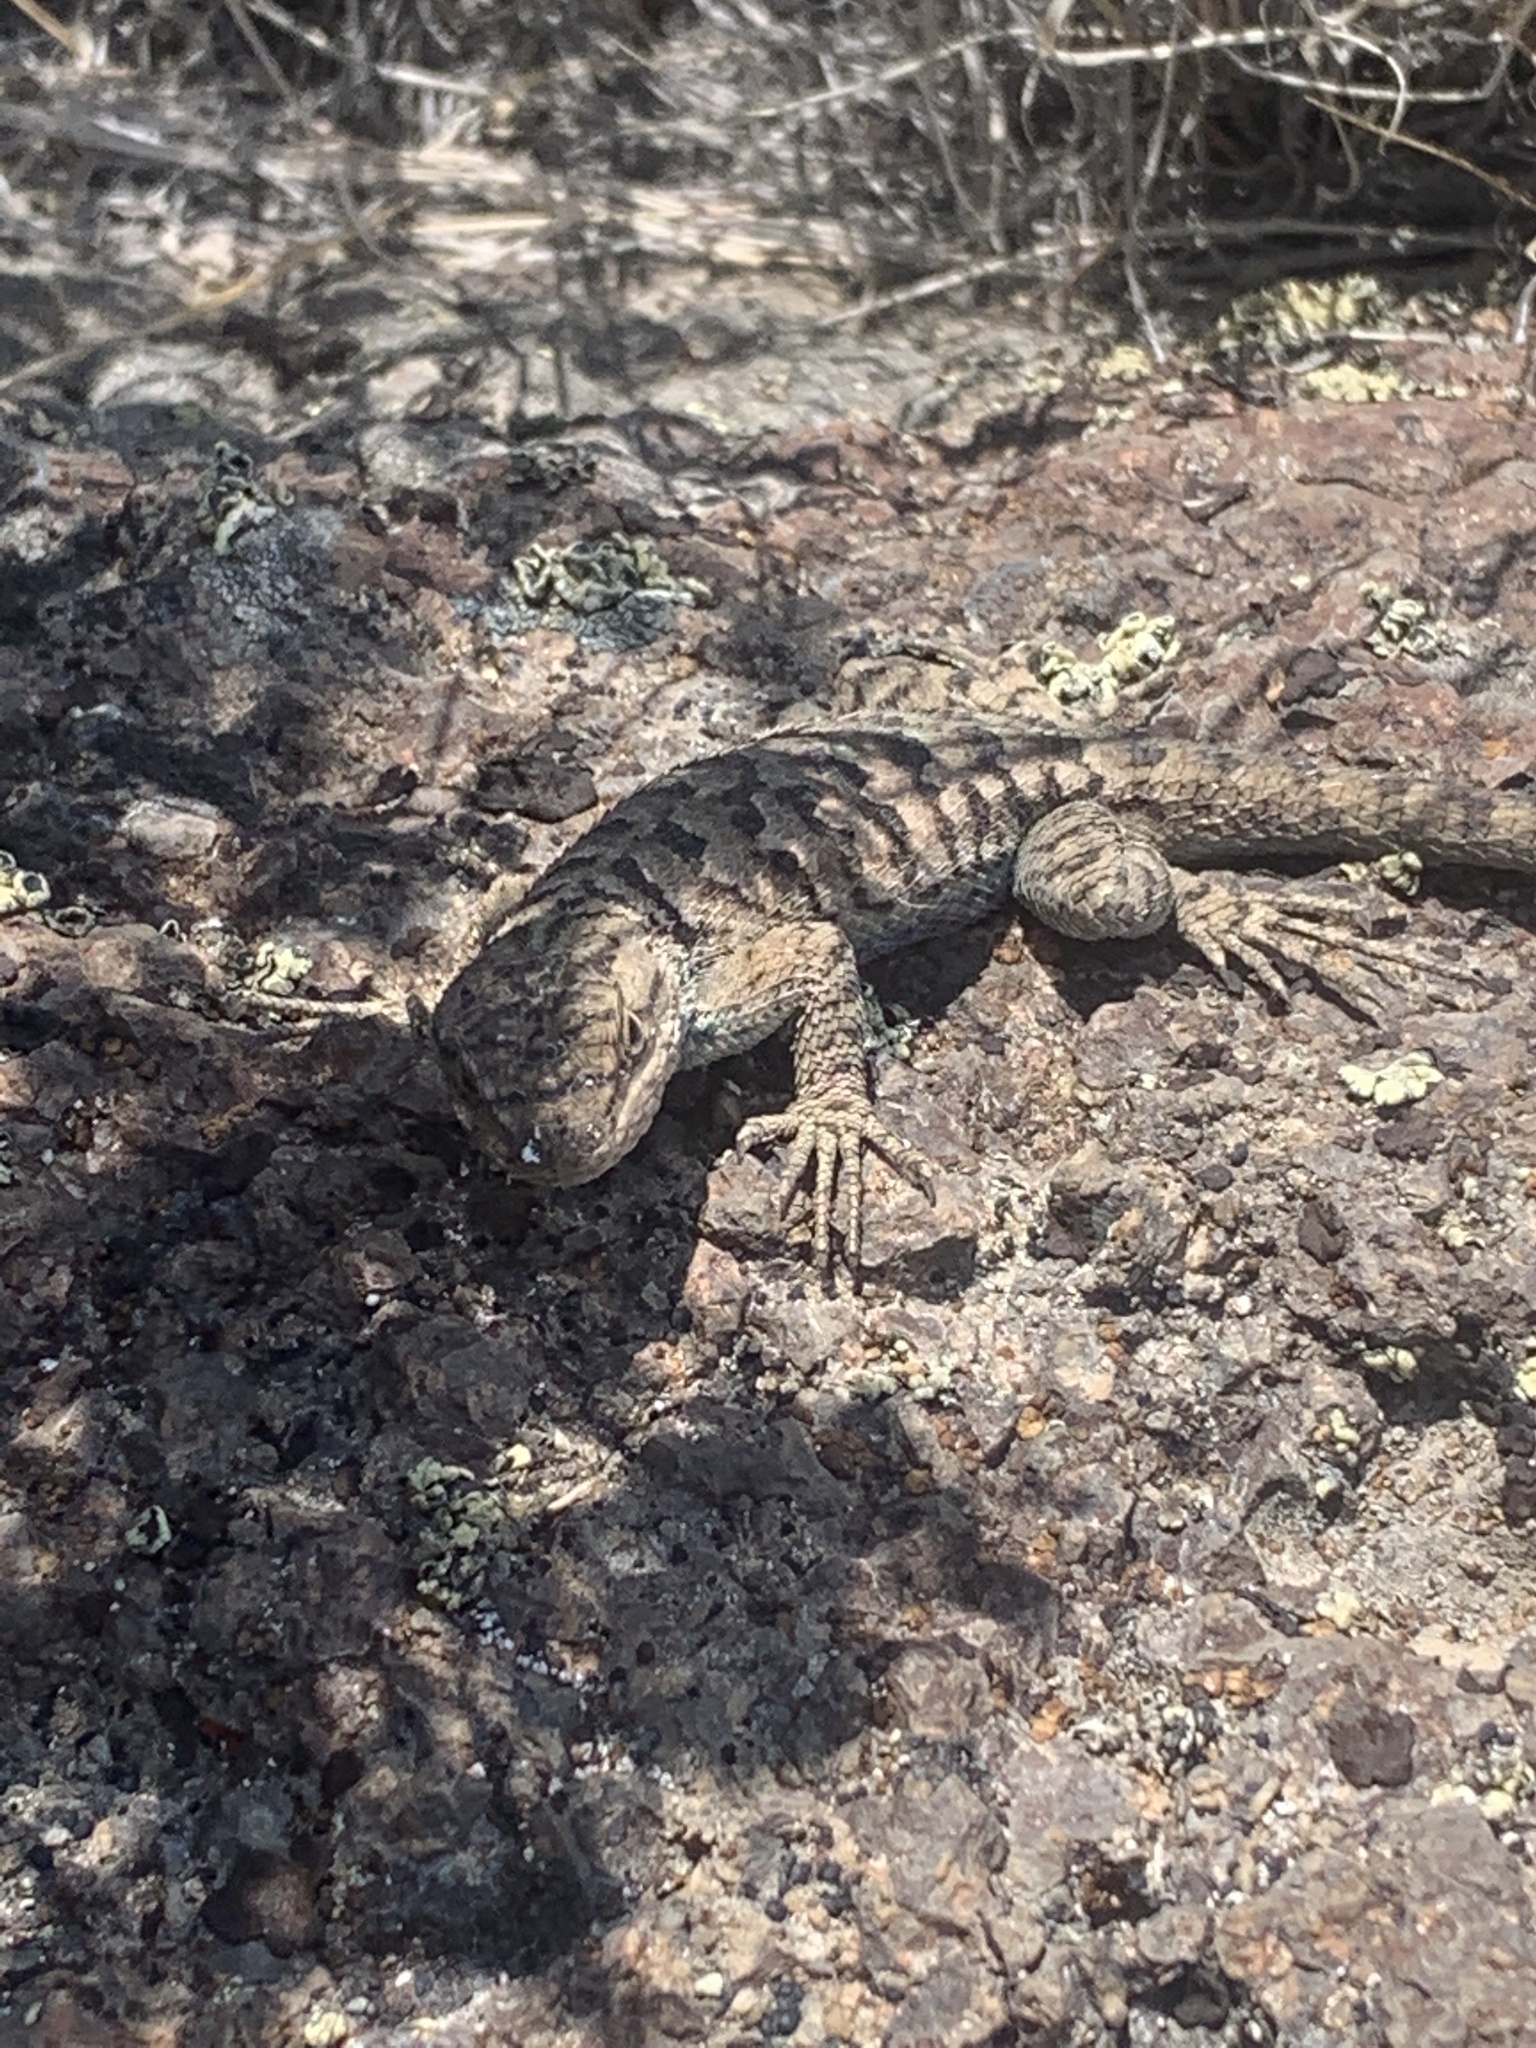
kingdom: Animalia
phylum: Chordata
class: Squamata
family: Phrynosomatidae
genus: Sceloporus
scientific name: Sceloporus occidentalis
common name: Western fence lizard
